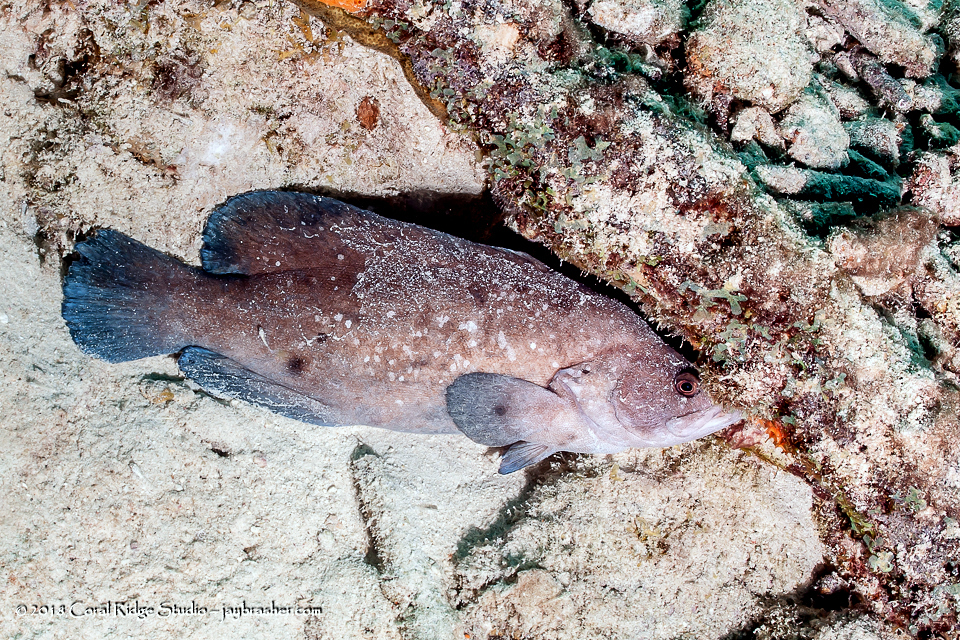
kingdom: Animalia
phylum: Chordata
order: Perciformes
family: Serranidae
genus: Rypticus
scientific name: Rypticus saponaceus
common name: Soapfish
